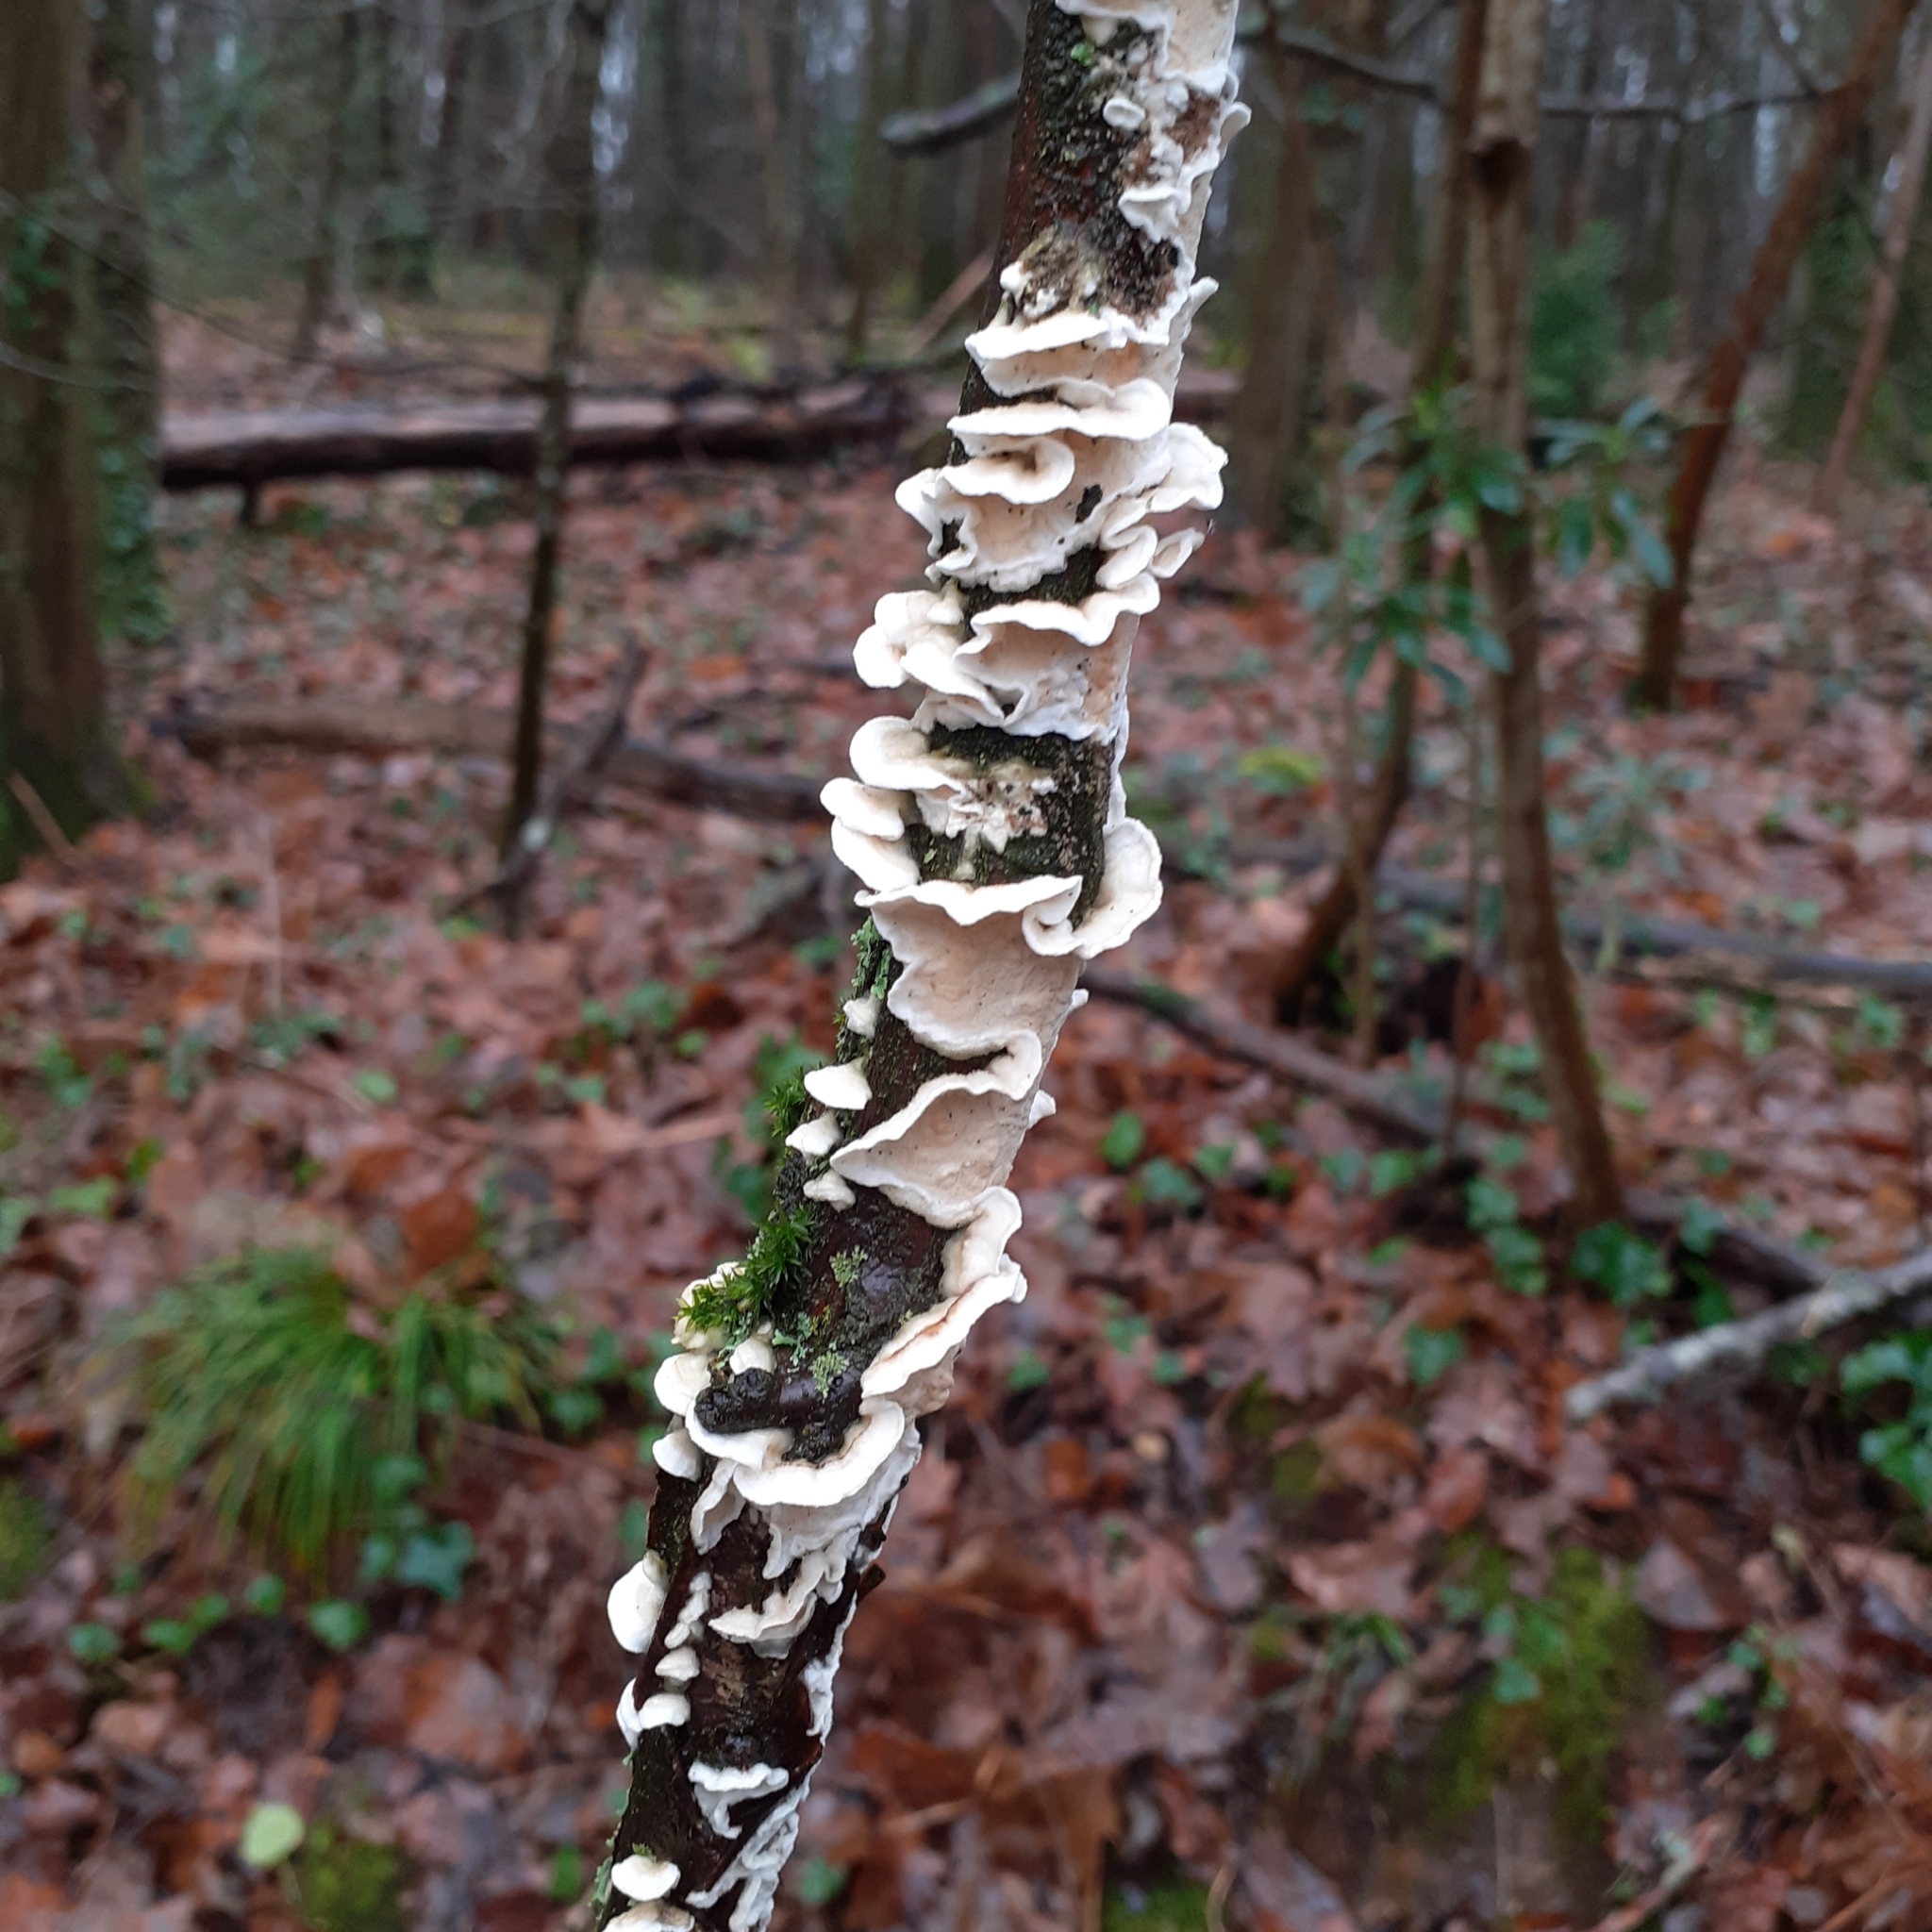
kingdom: Fungi
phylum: Basidiomycota
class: Agaricomycetes
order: Polyporales
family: Irpicaceae
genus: Byssomerulius
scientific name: Byssomerulius corium
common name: Netted crust
